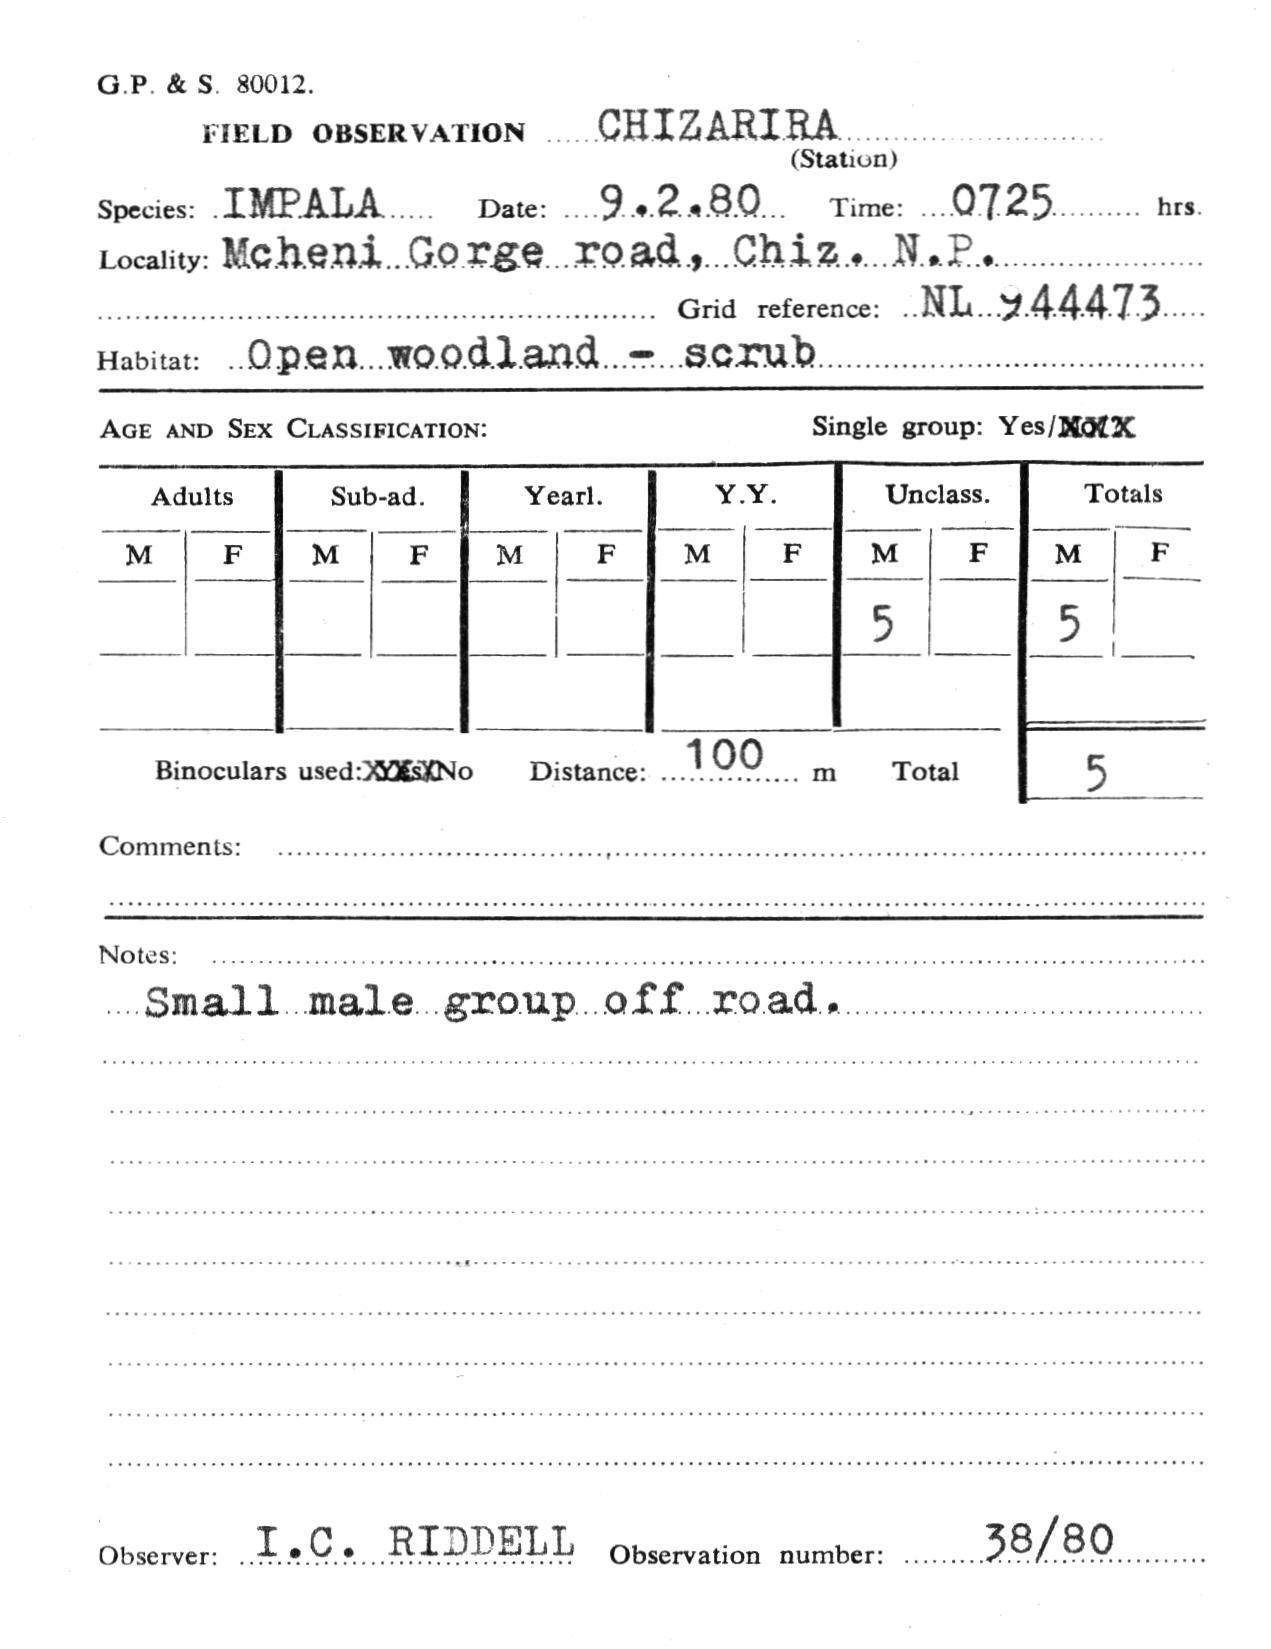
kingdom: Animalia
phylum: Chordata
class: Mammalia
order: Artiodactyla
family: Bovidae
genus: Aepyceros
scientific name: Aepyceros melampus
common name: Impala
